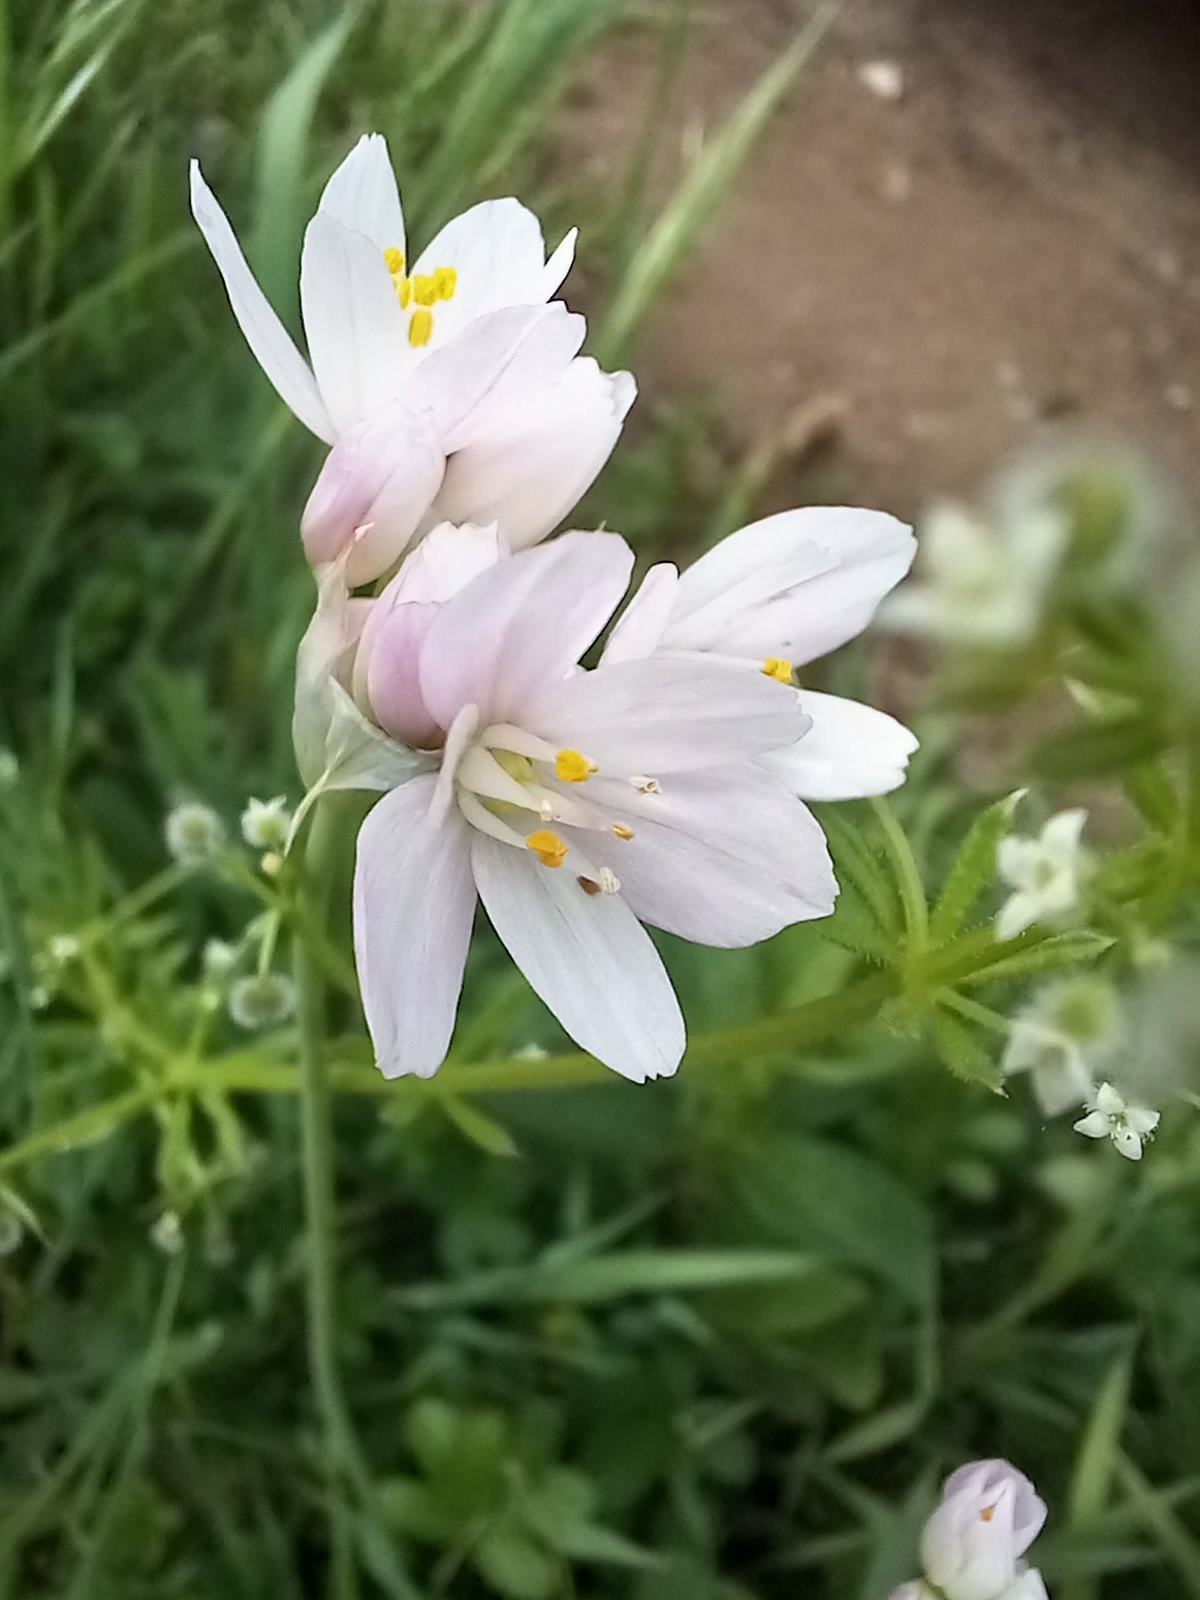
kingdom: Plantae
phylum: Tracheophyta
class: Liliopsida
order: Asparagales
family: Amaryllidaceae
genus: Allium
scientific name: Allium roseum
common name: Rosy garlic
